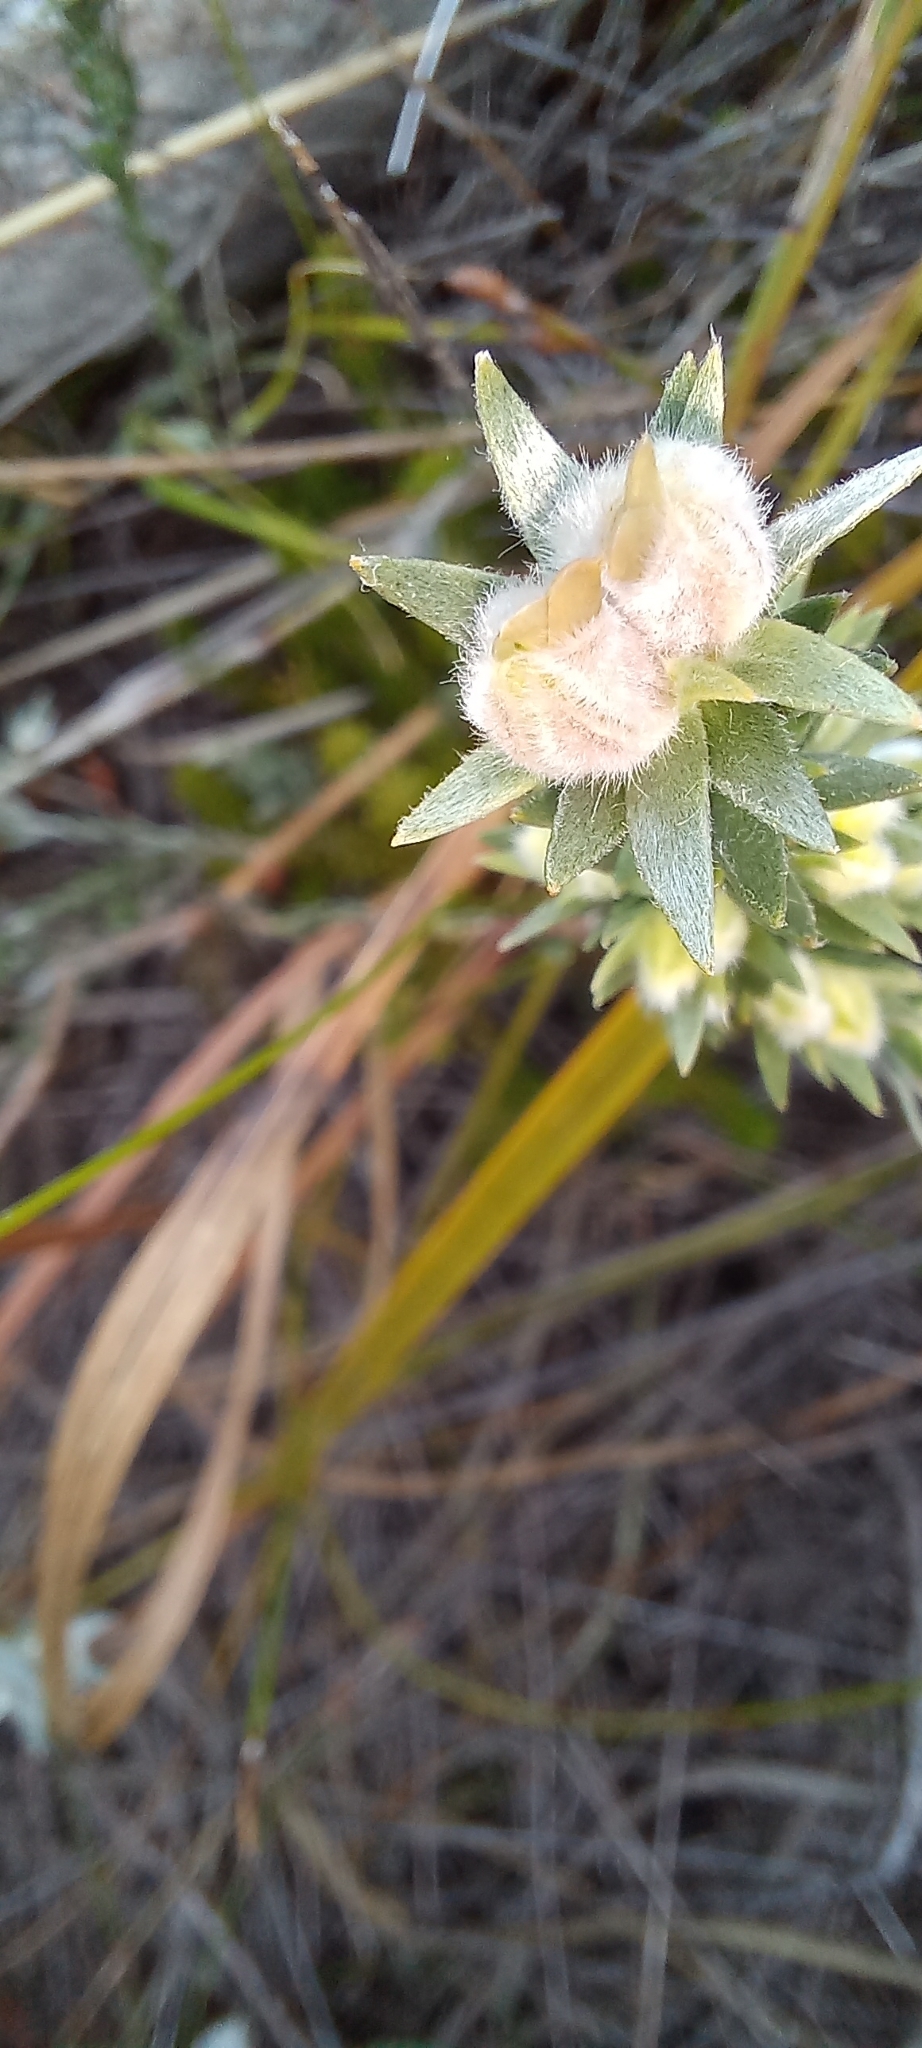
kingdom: Plantae
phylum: Tracheophyta
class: Magnoliopsida
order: Fabales
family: Fabaceae
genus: Amphithalea
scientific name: Amphithalea tomentosa
